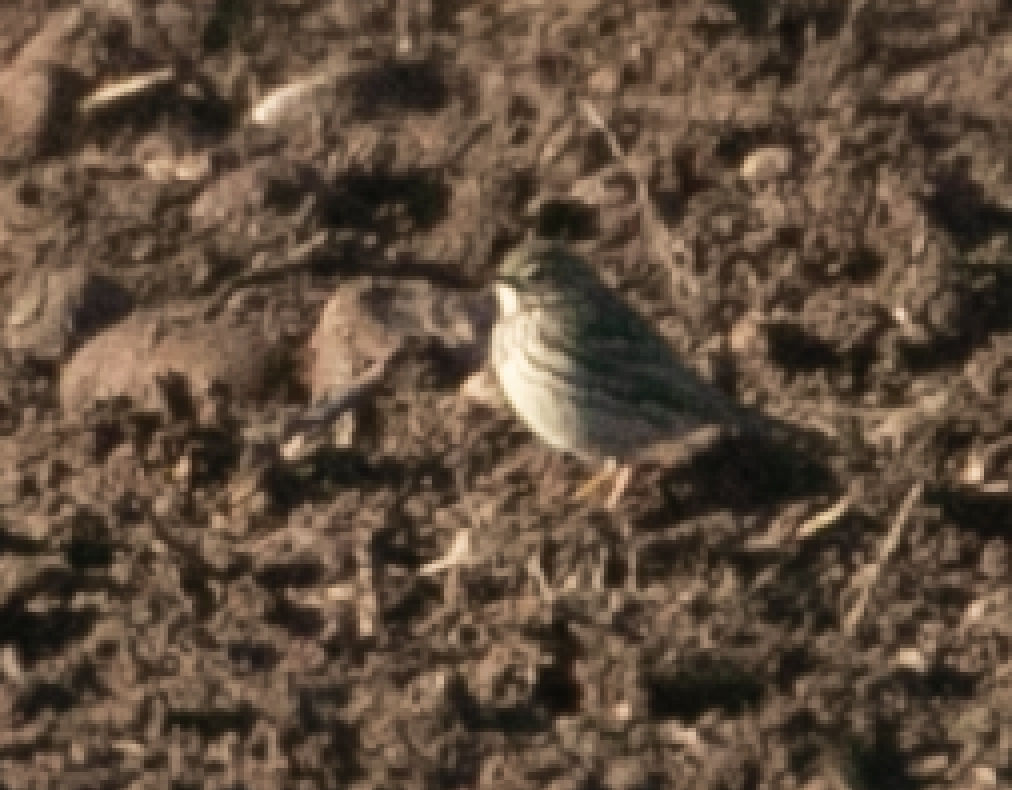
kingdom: Animalia
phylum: Chordata
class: Aves
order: Passeriformes
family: Motacillidae
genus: Anthus
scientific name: Anthus pratensis
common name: Meadow pipit
